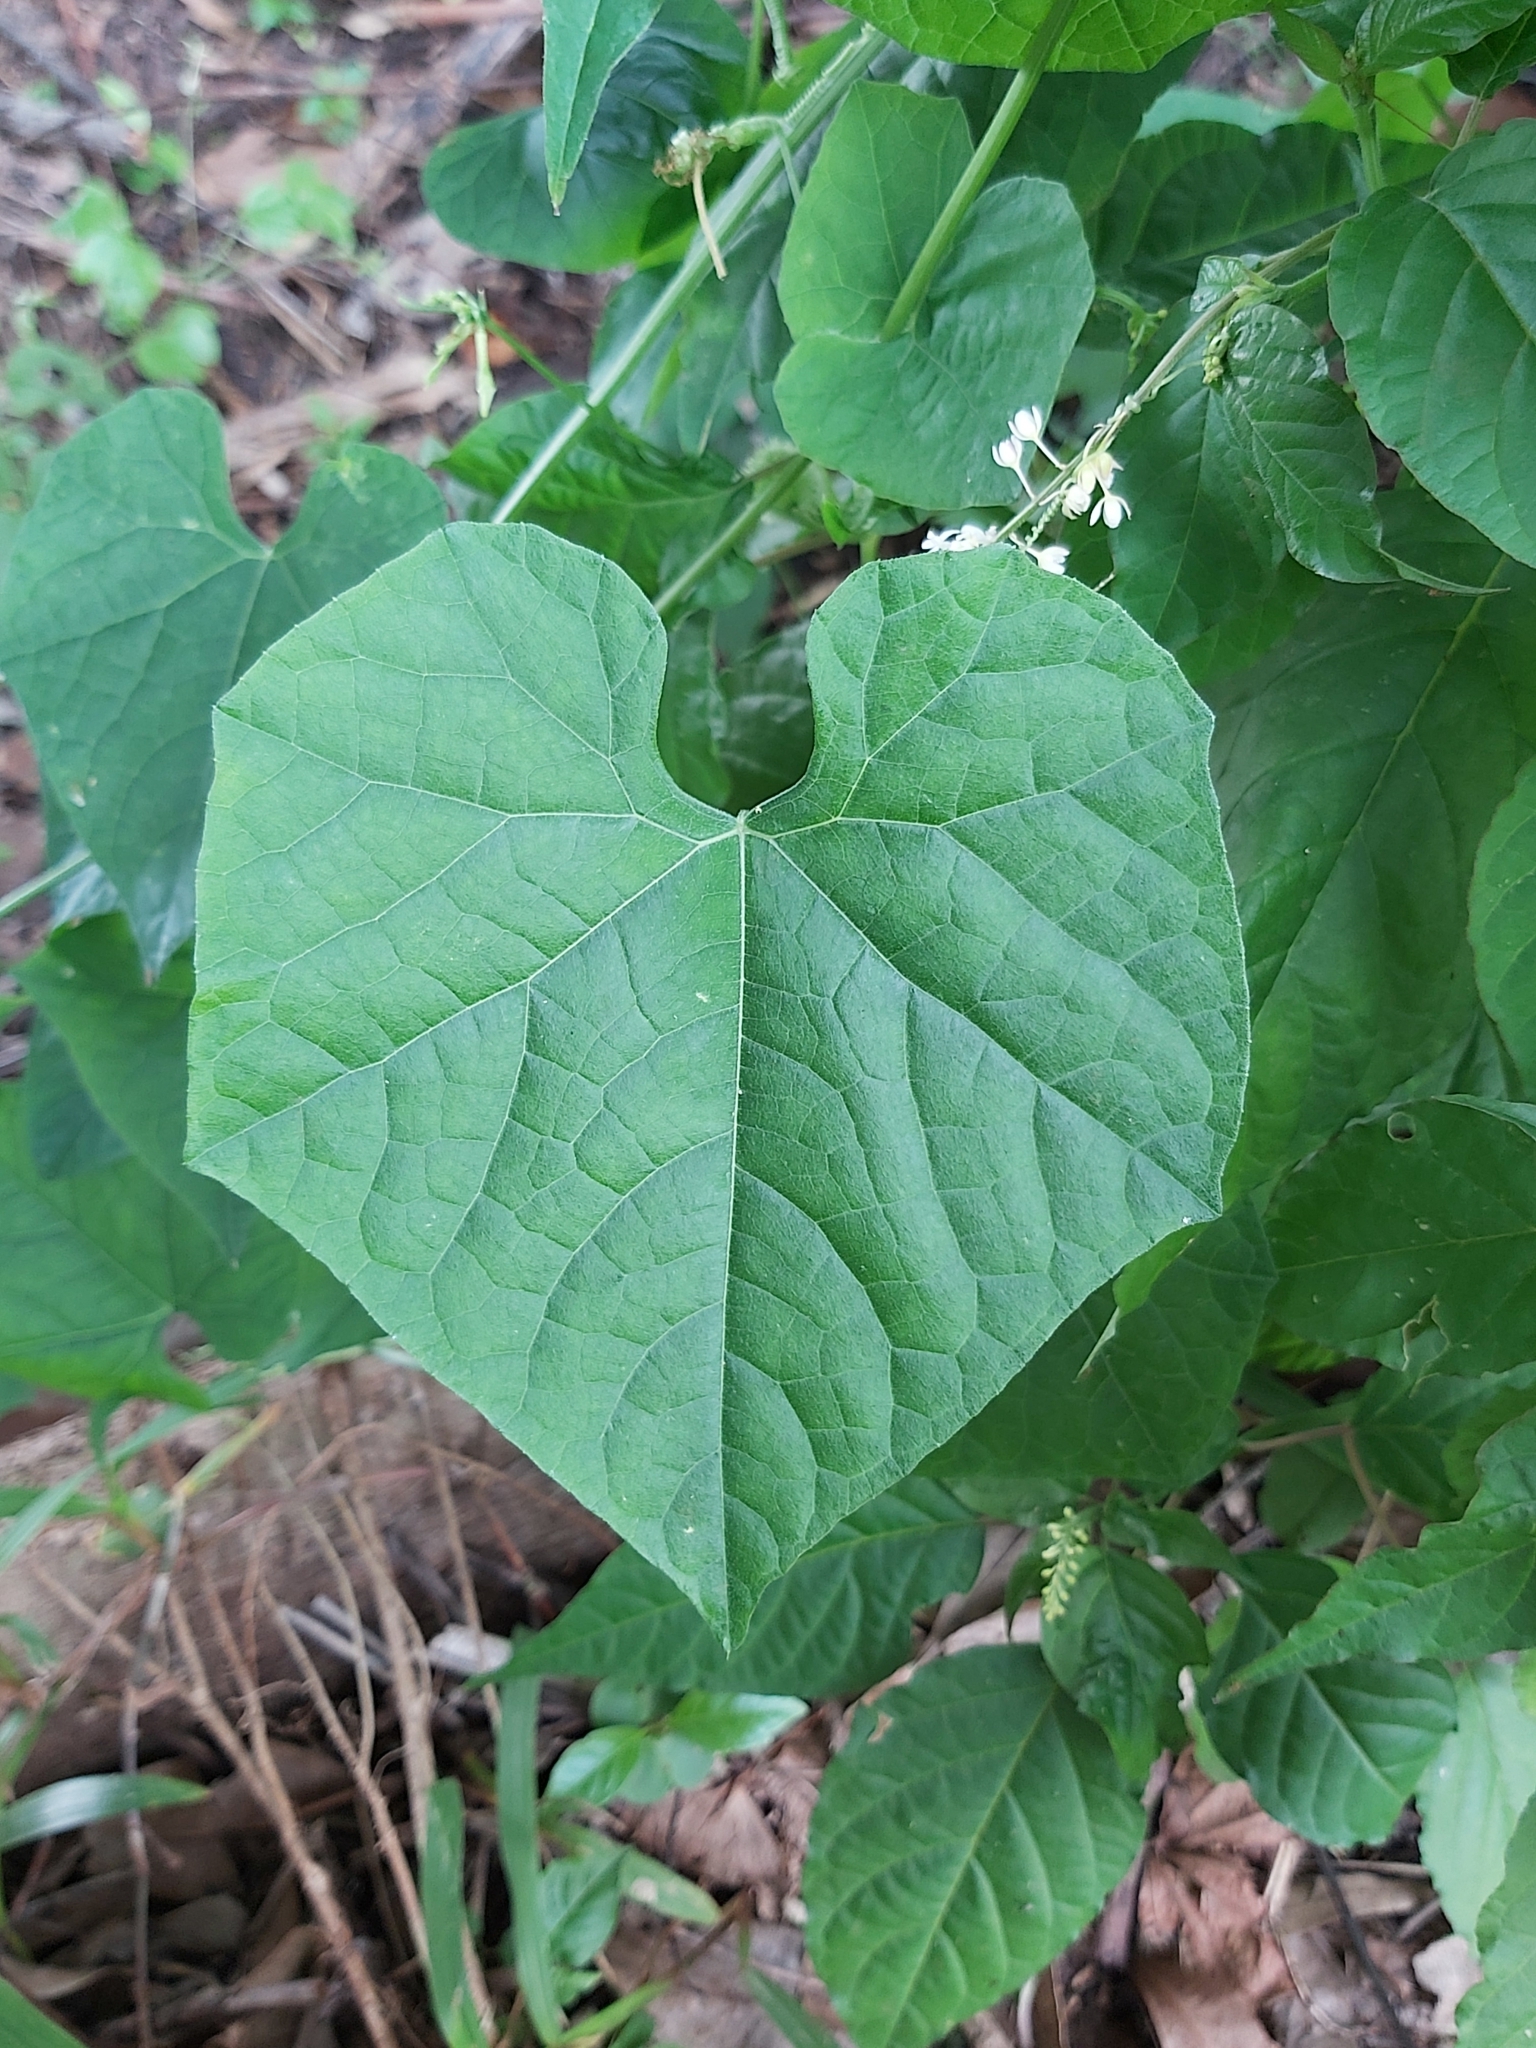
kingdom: Plantae
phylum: Tracheophyta
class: Magnoliopsida
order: Cucurbitales
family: Cucurbitaceae
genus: Sechium
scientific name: Sechium edule
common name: Chayote
